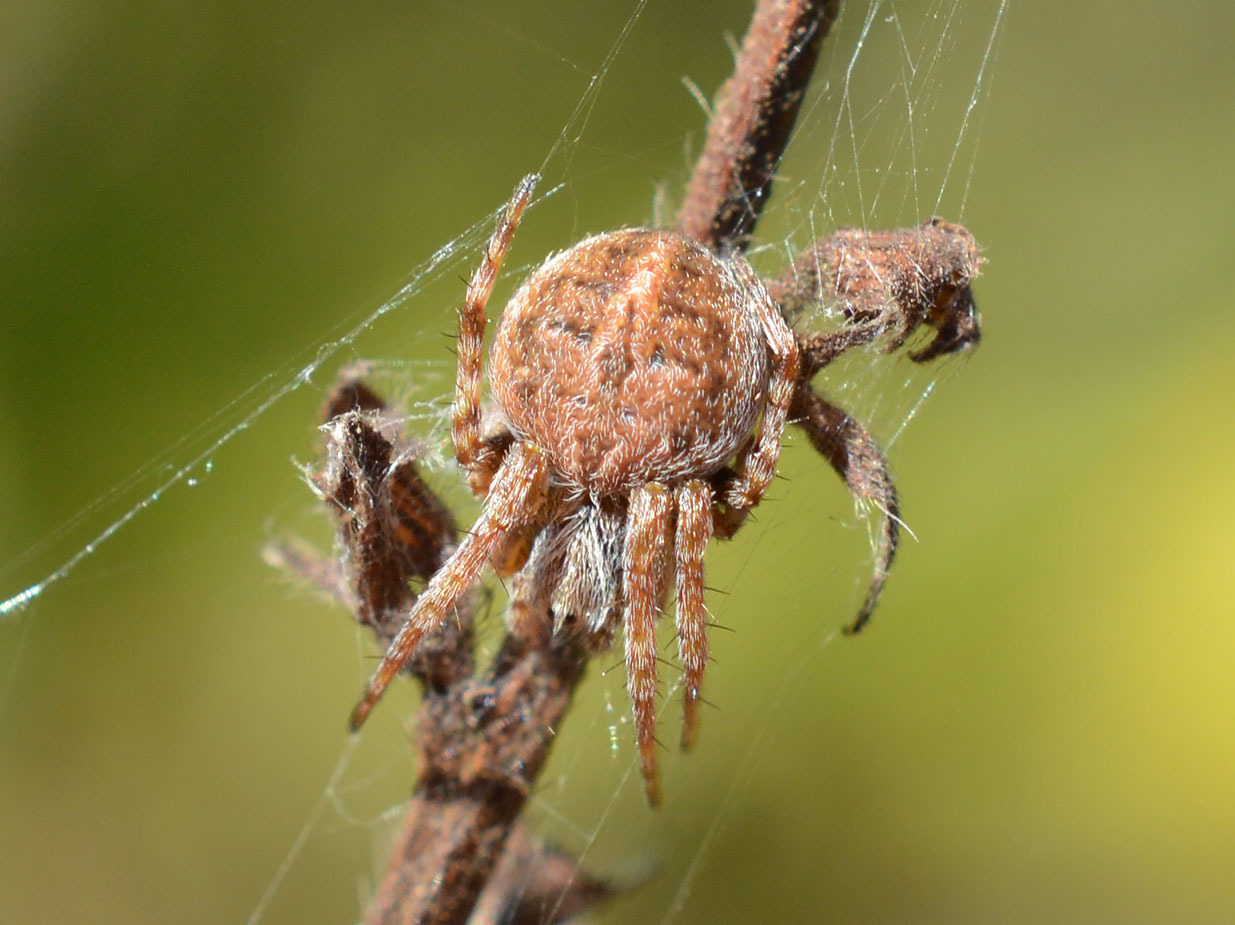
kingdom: Animalia
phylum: Arthropoda
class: Arachnida
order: Araneae
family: Araneidae
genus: Agalenatea
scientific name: Agalenatea redii
